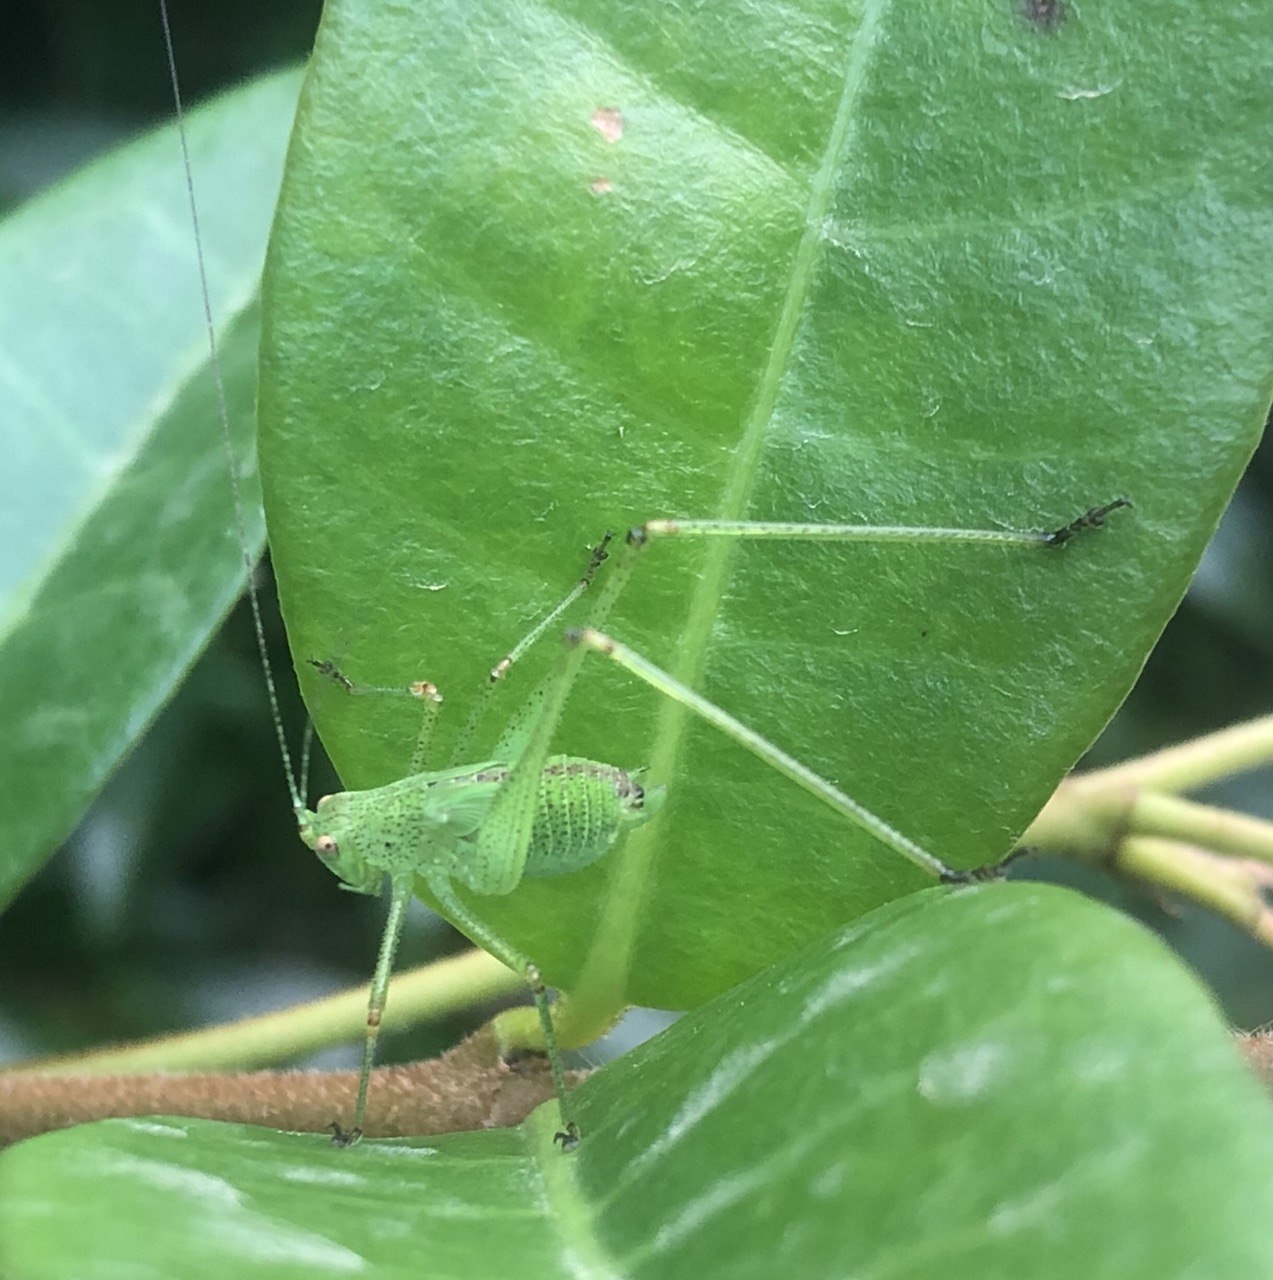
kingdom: Animalia
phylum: Arthropoda
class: Insecta
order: Orthoptera
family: Tettigoniidae
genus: Phaneroptera
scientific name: Phaneroptera nana
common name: Southern sickle bush-cricket
